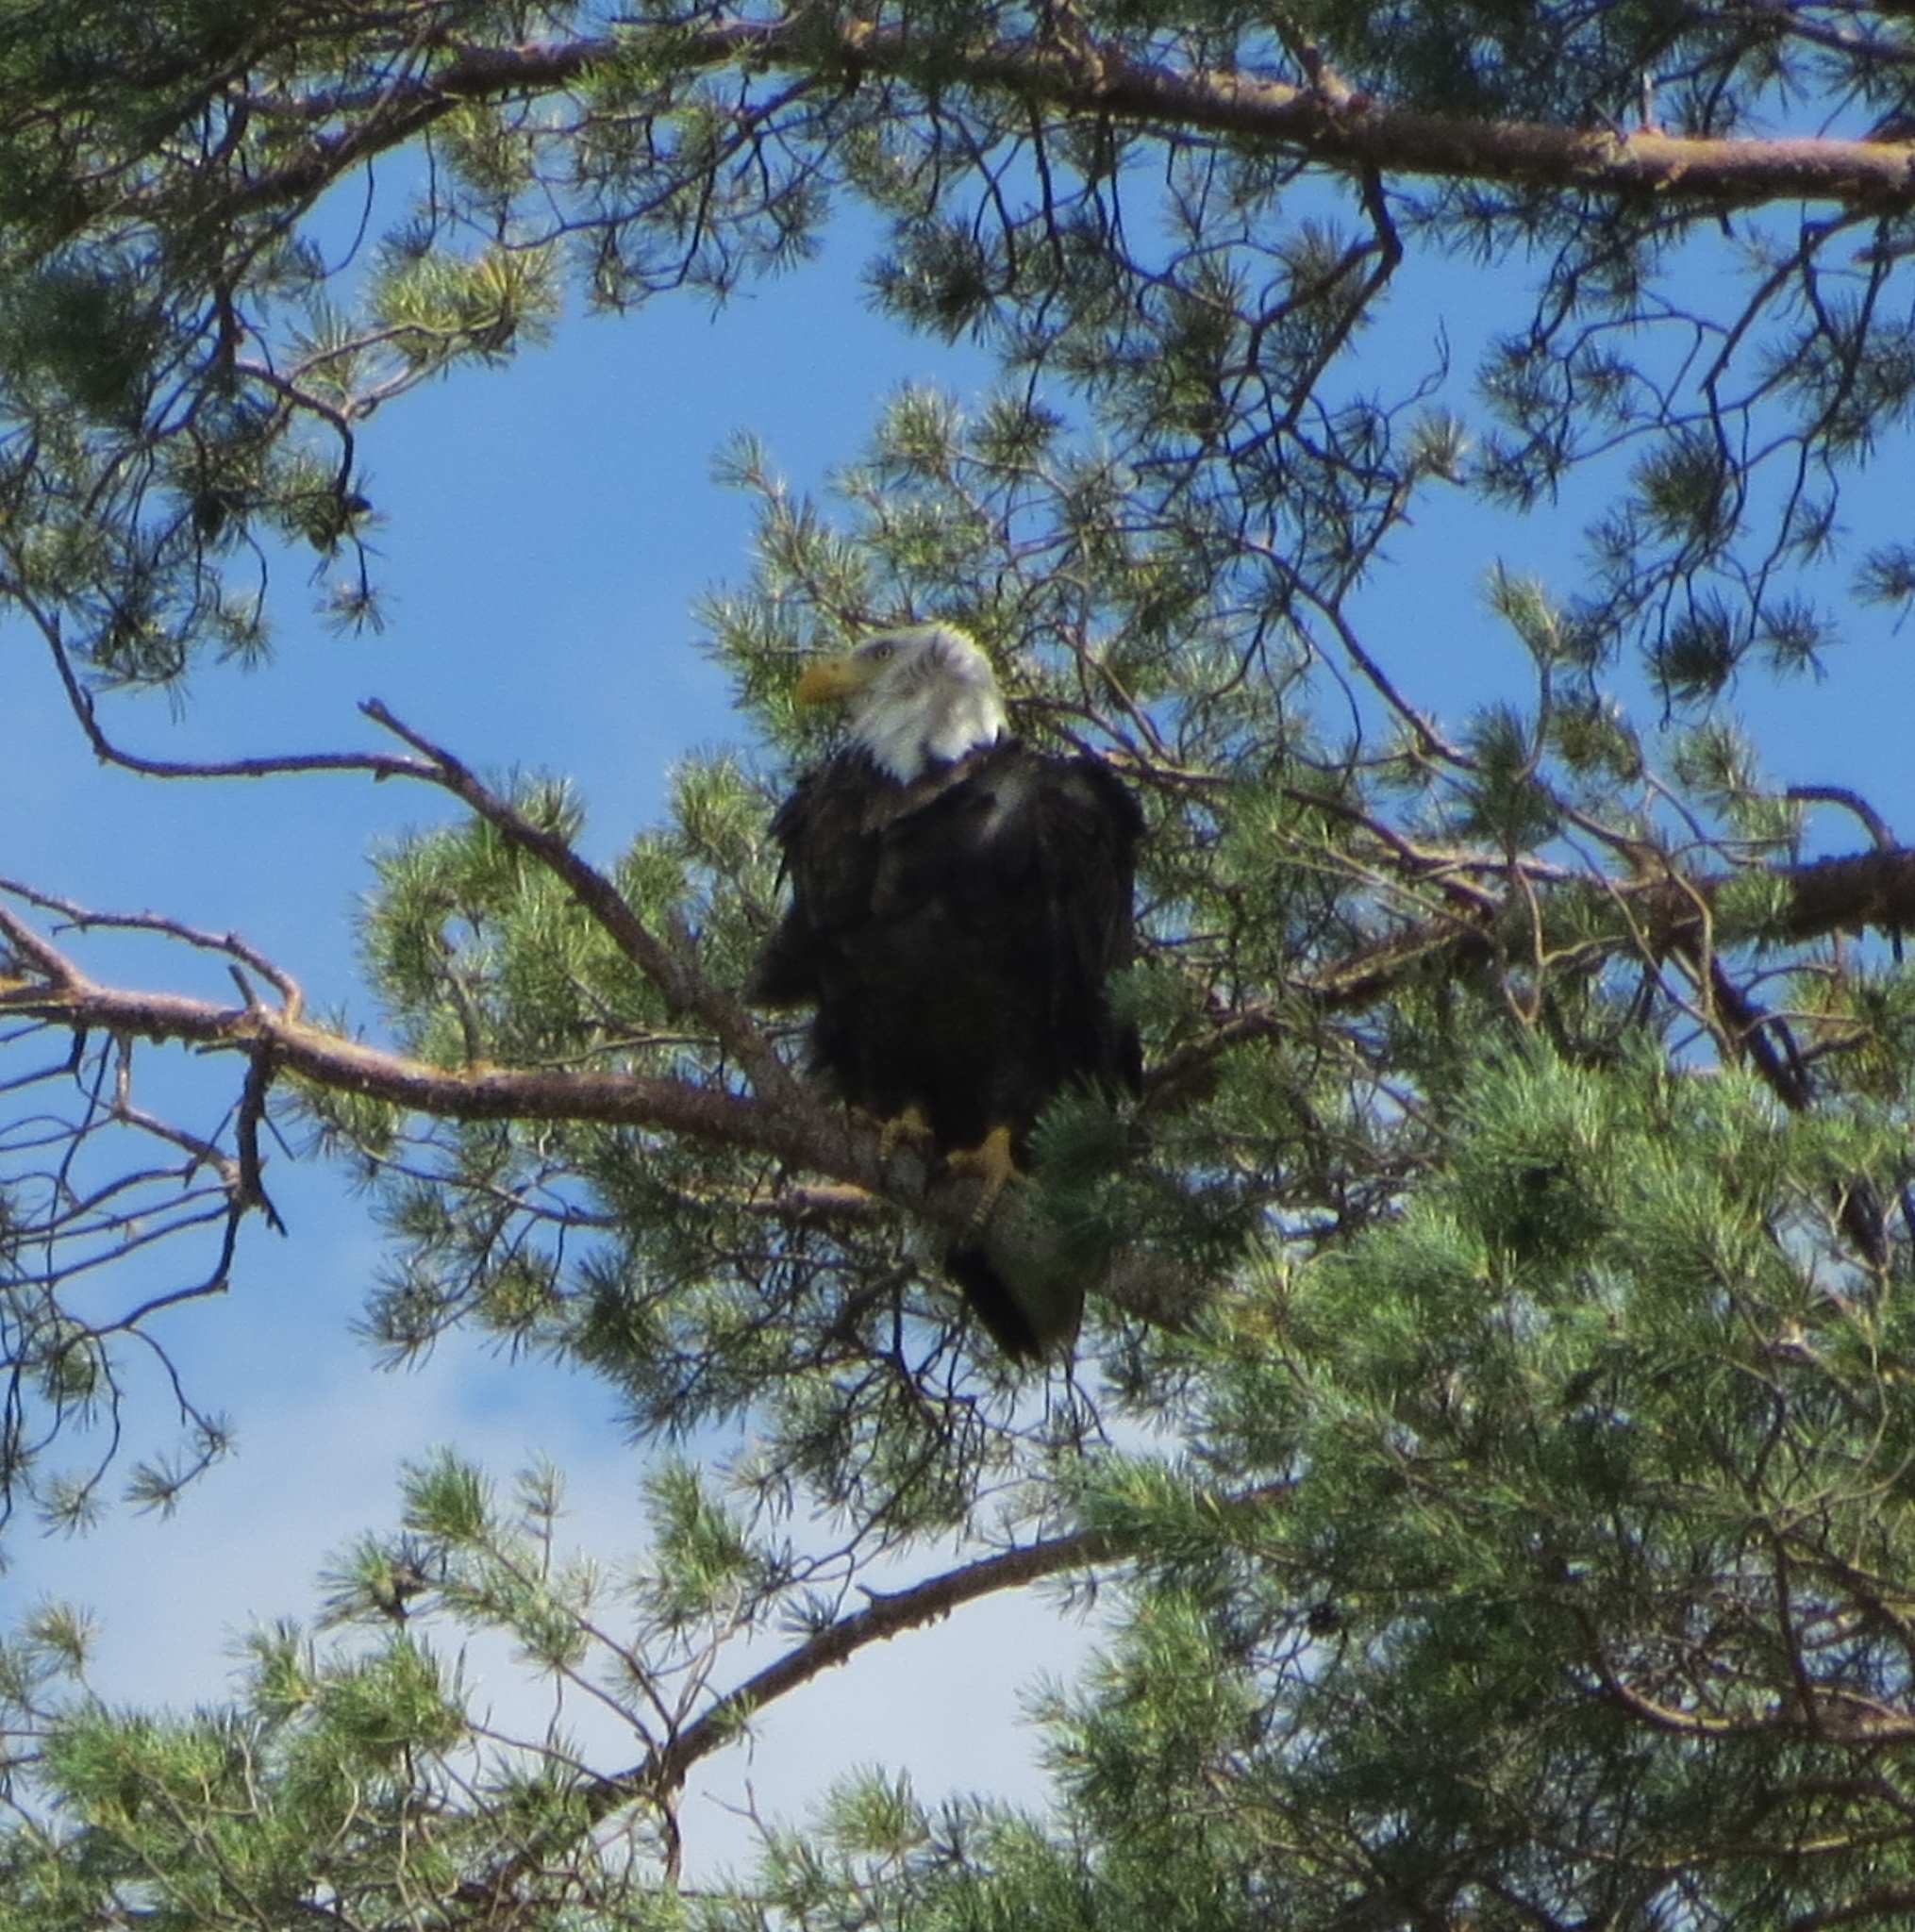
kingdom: Animalia
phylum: Chordata
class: Aves
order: Accipitriformes
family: Accipitridae
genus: Haliaeetus
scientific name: Haliaeetus leucocephalus
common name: Bald eagle
